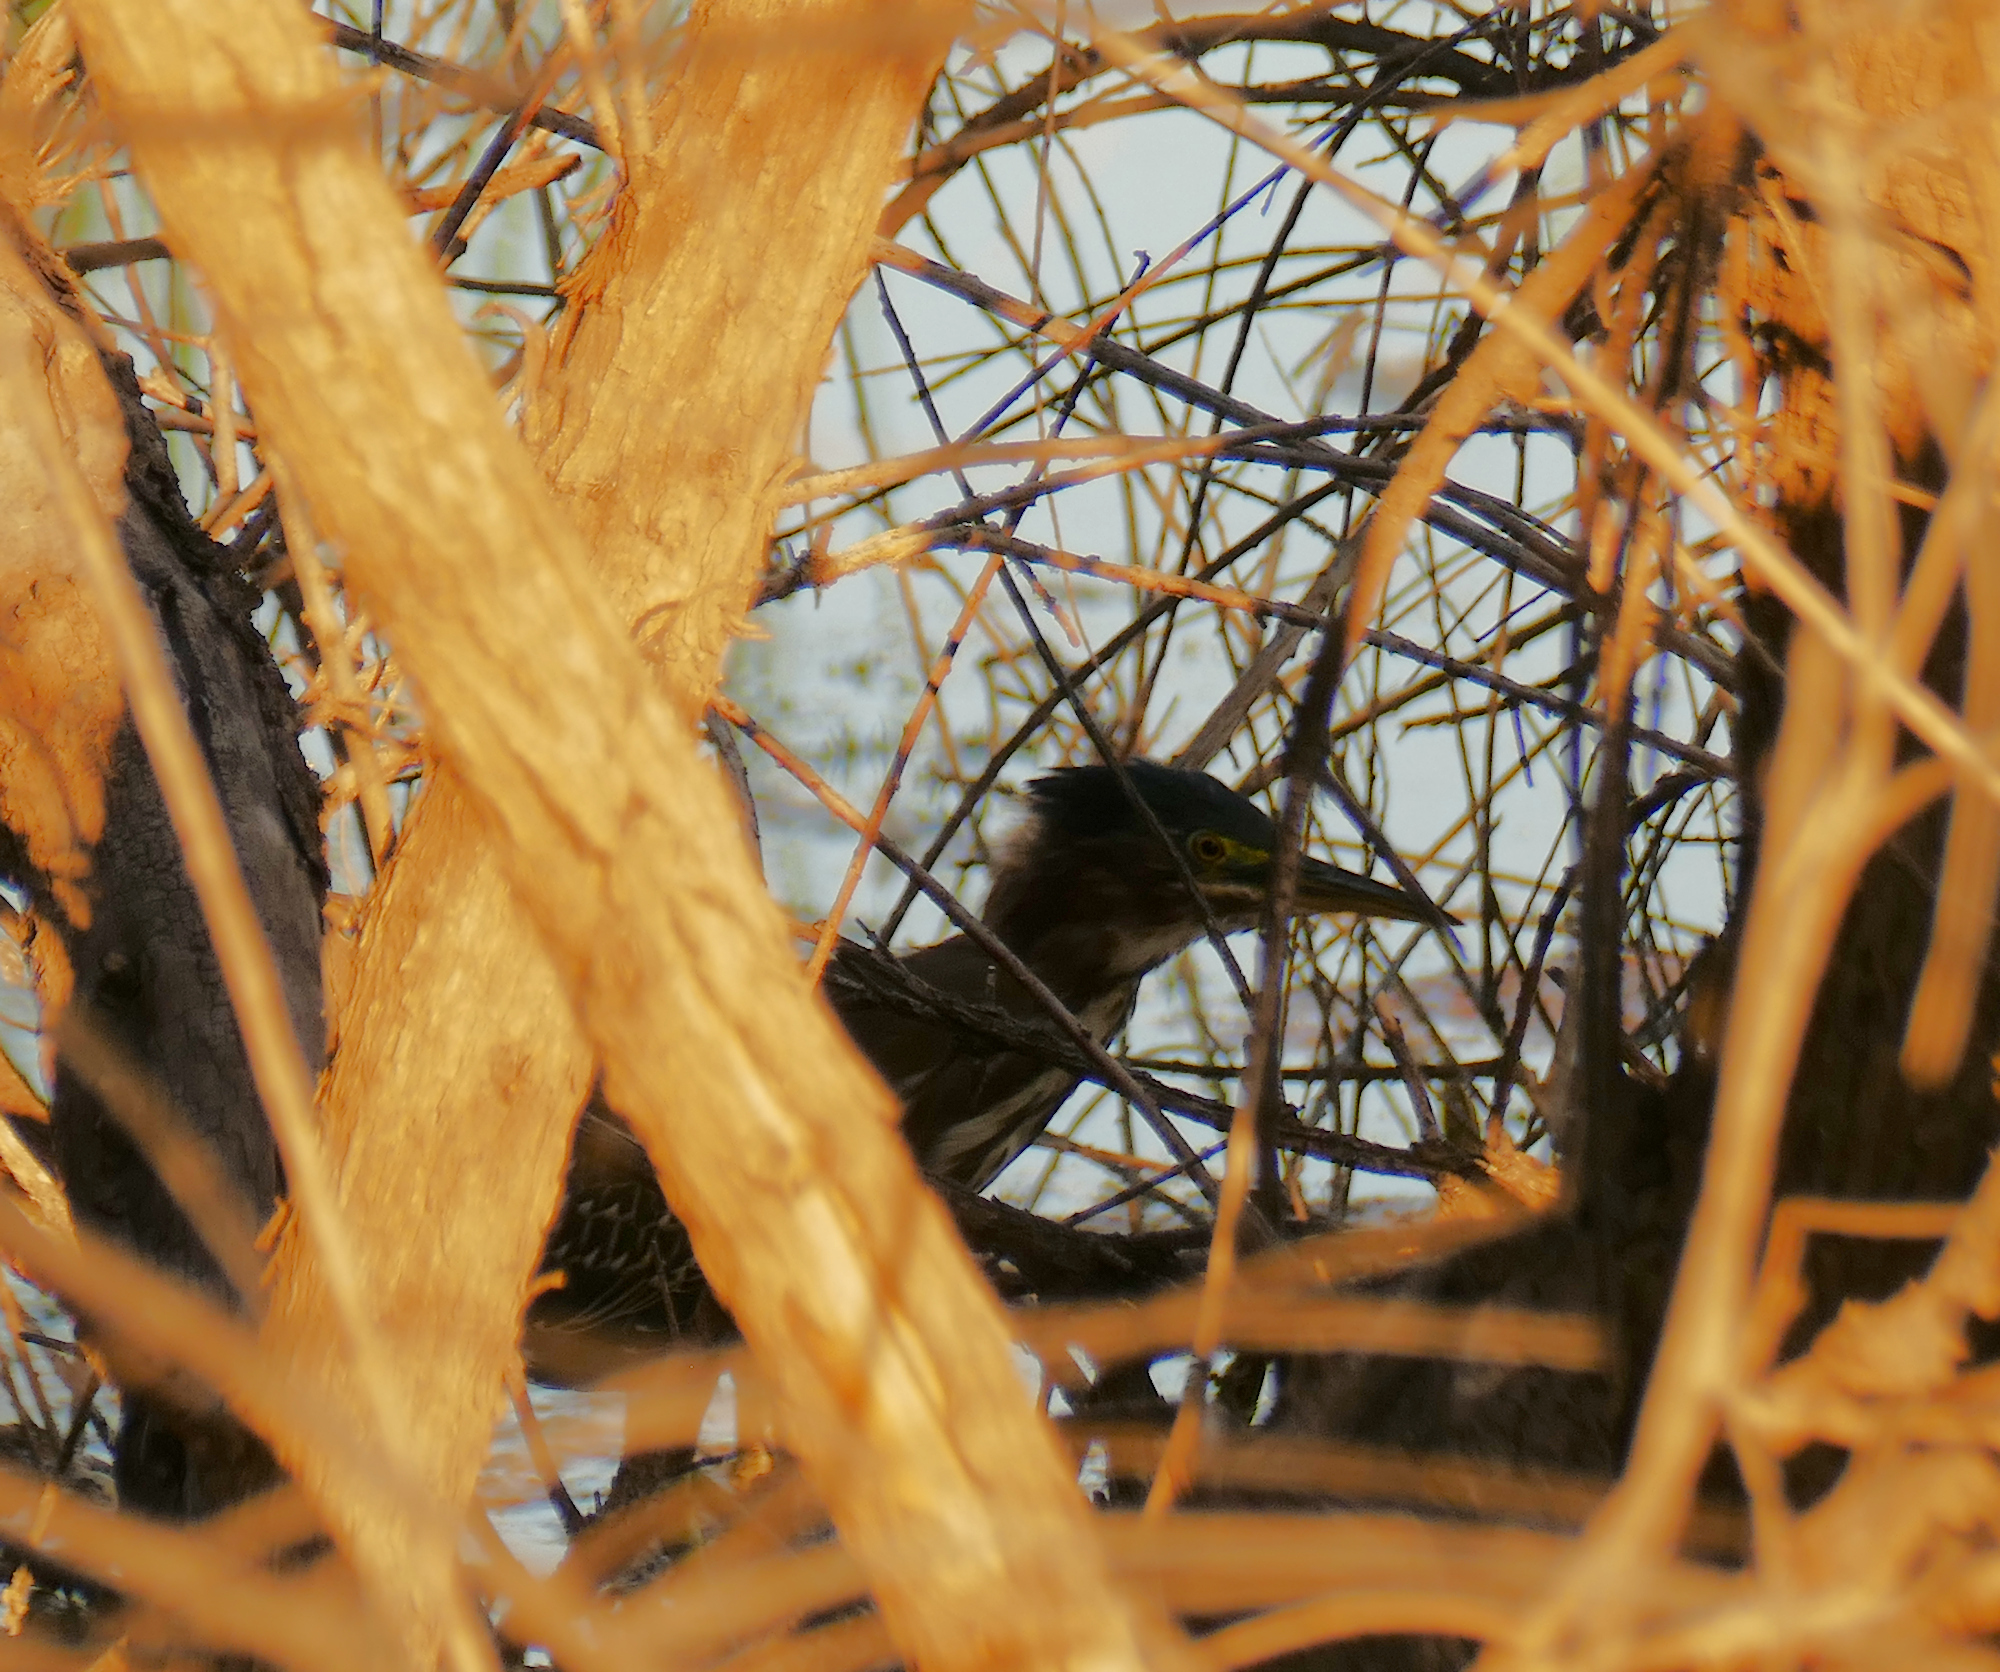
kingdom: Animalia
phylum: Chordata
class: Aves
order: Pelecaniformes
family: Ardeidae
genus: Butorides
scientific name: Butorides virescens
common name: Green heron
